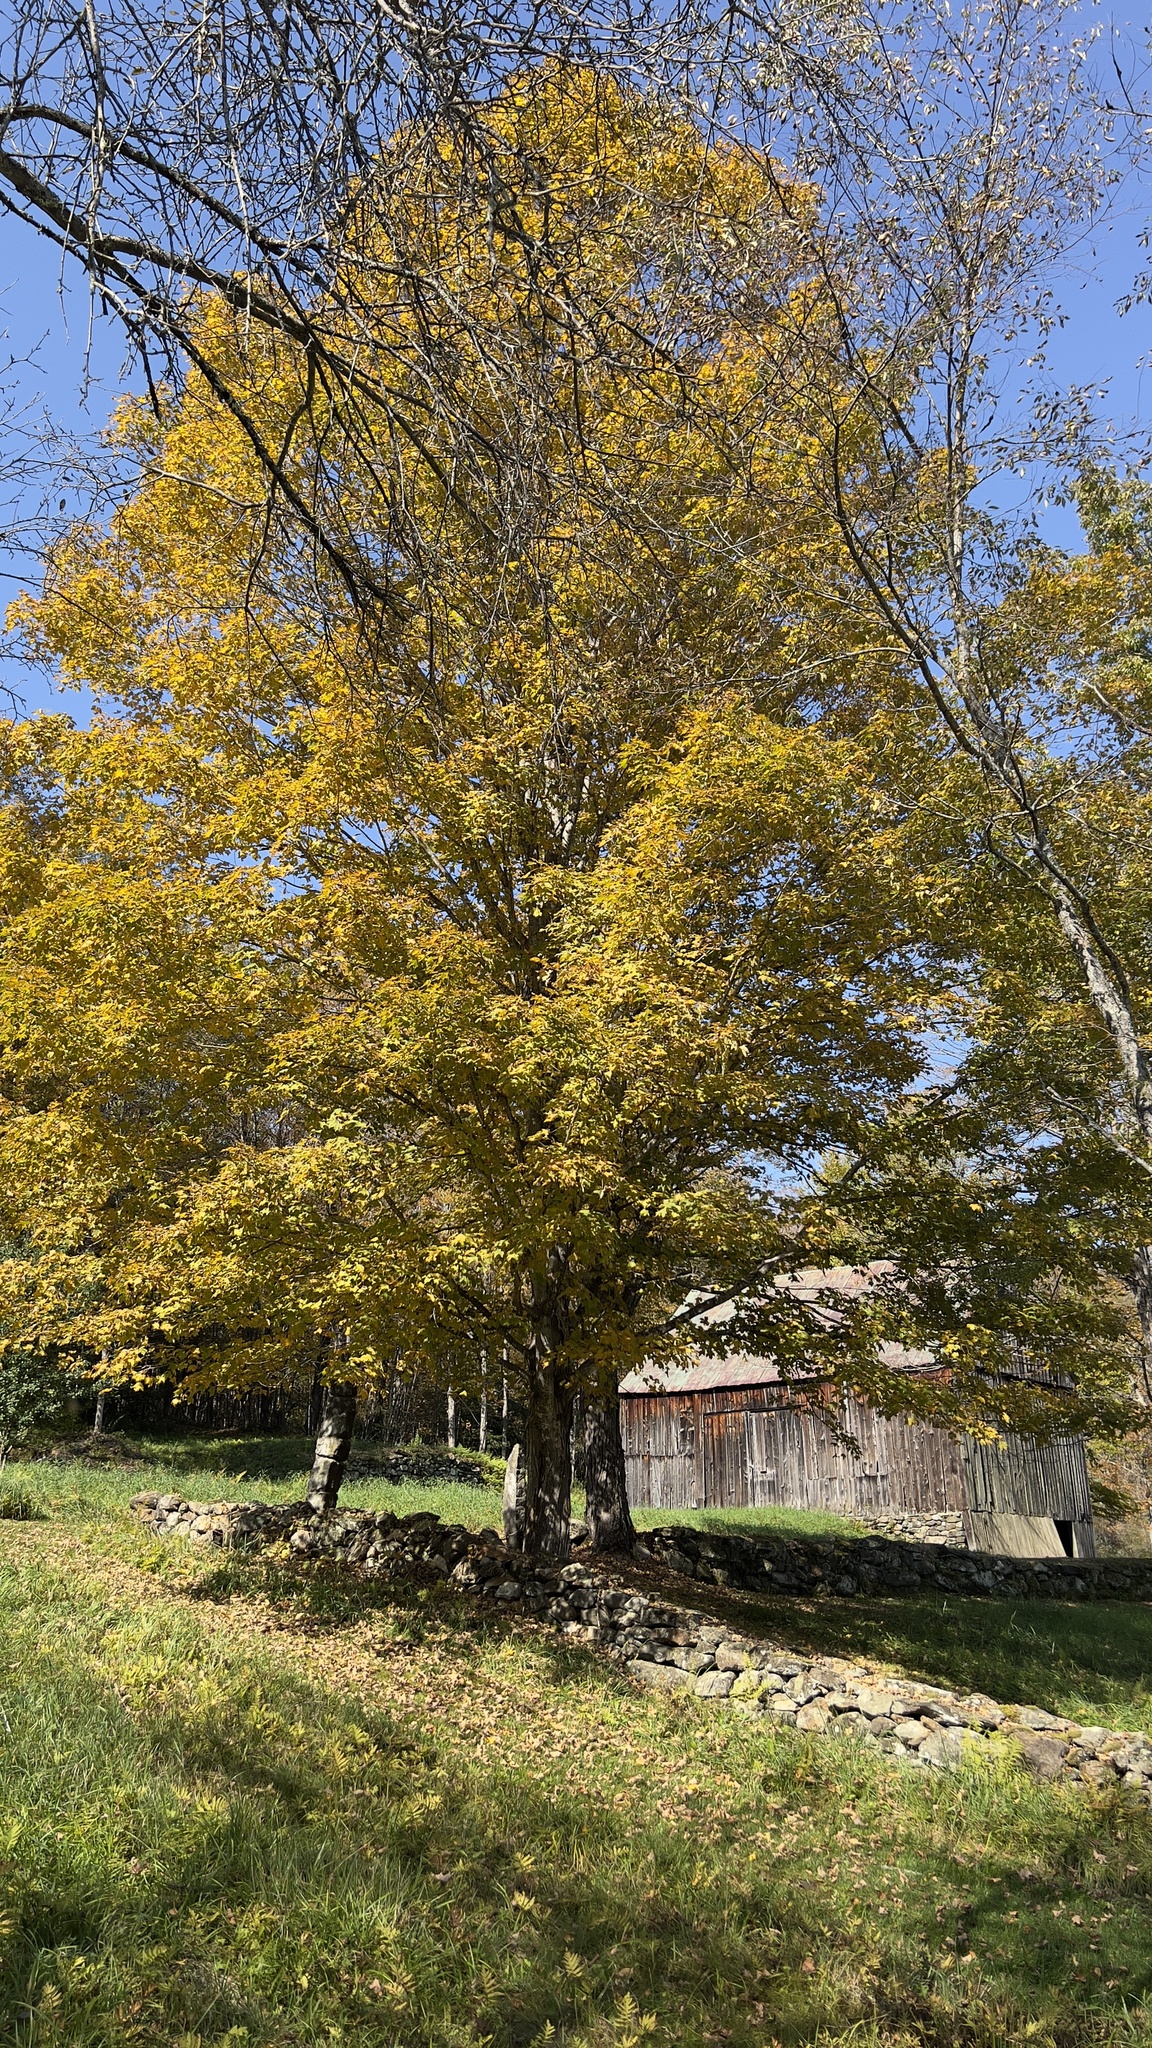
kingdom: Plantae
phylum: Tracheophyta
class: Magnoliopsida
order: Sapindales
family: Sapindaceae
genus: Acer
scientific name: Acer saccharum
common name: Sugar maple
